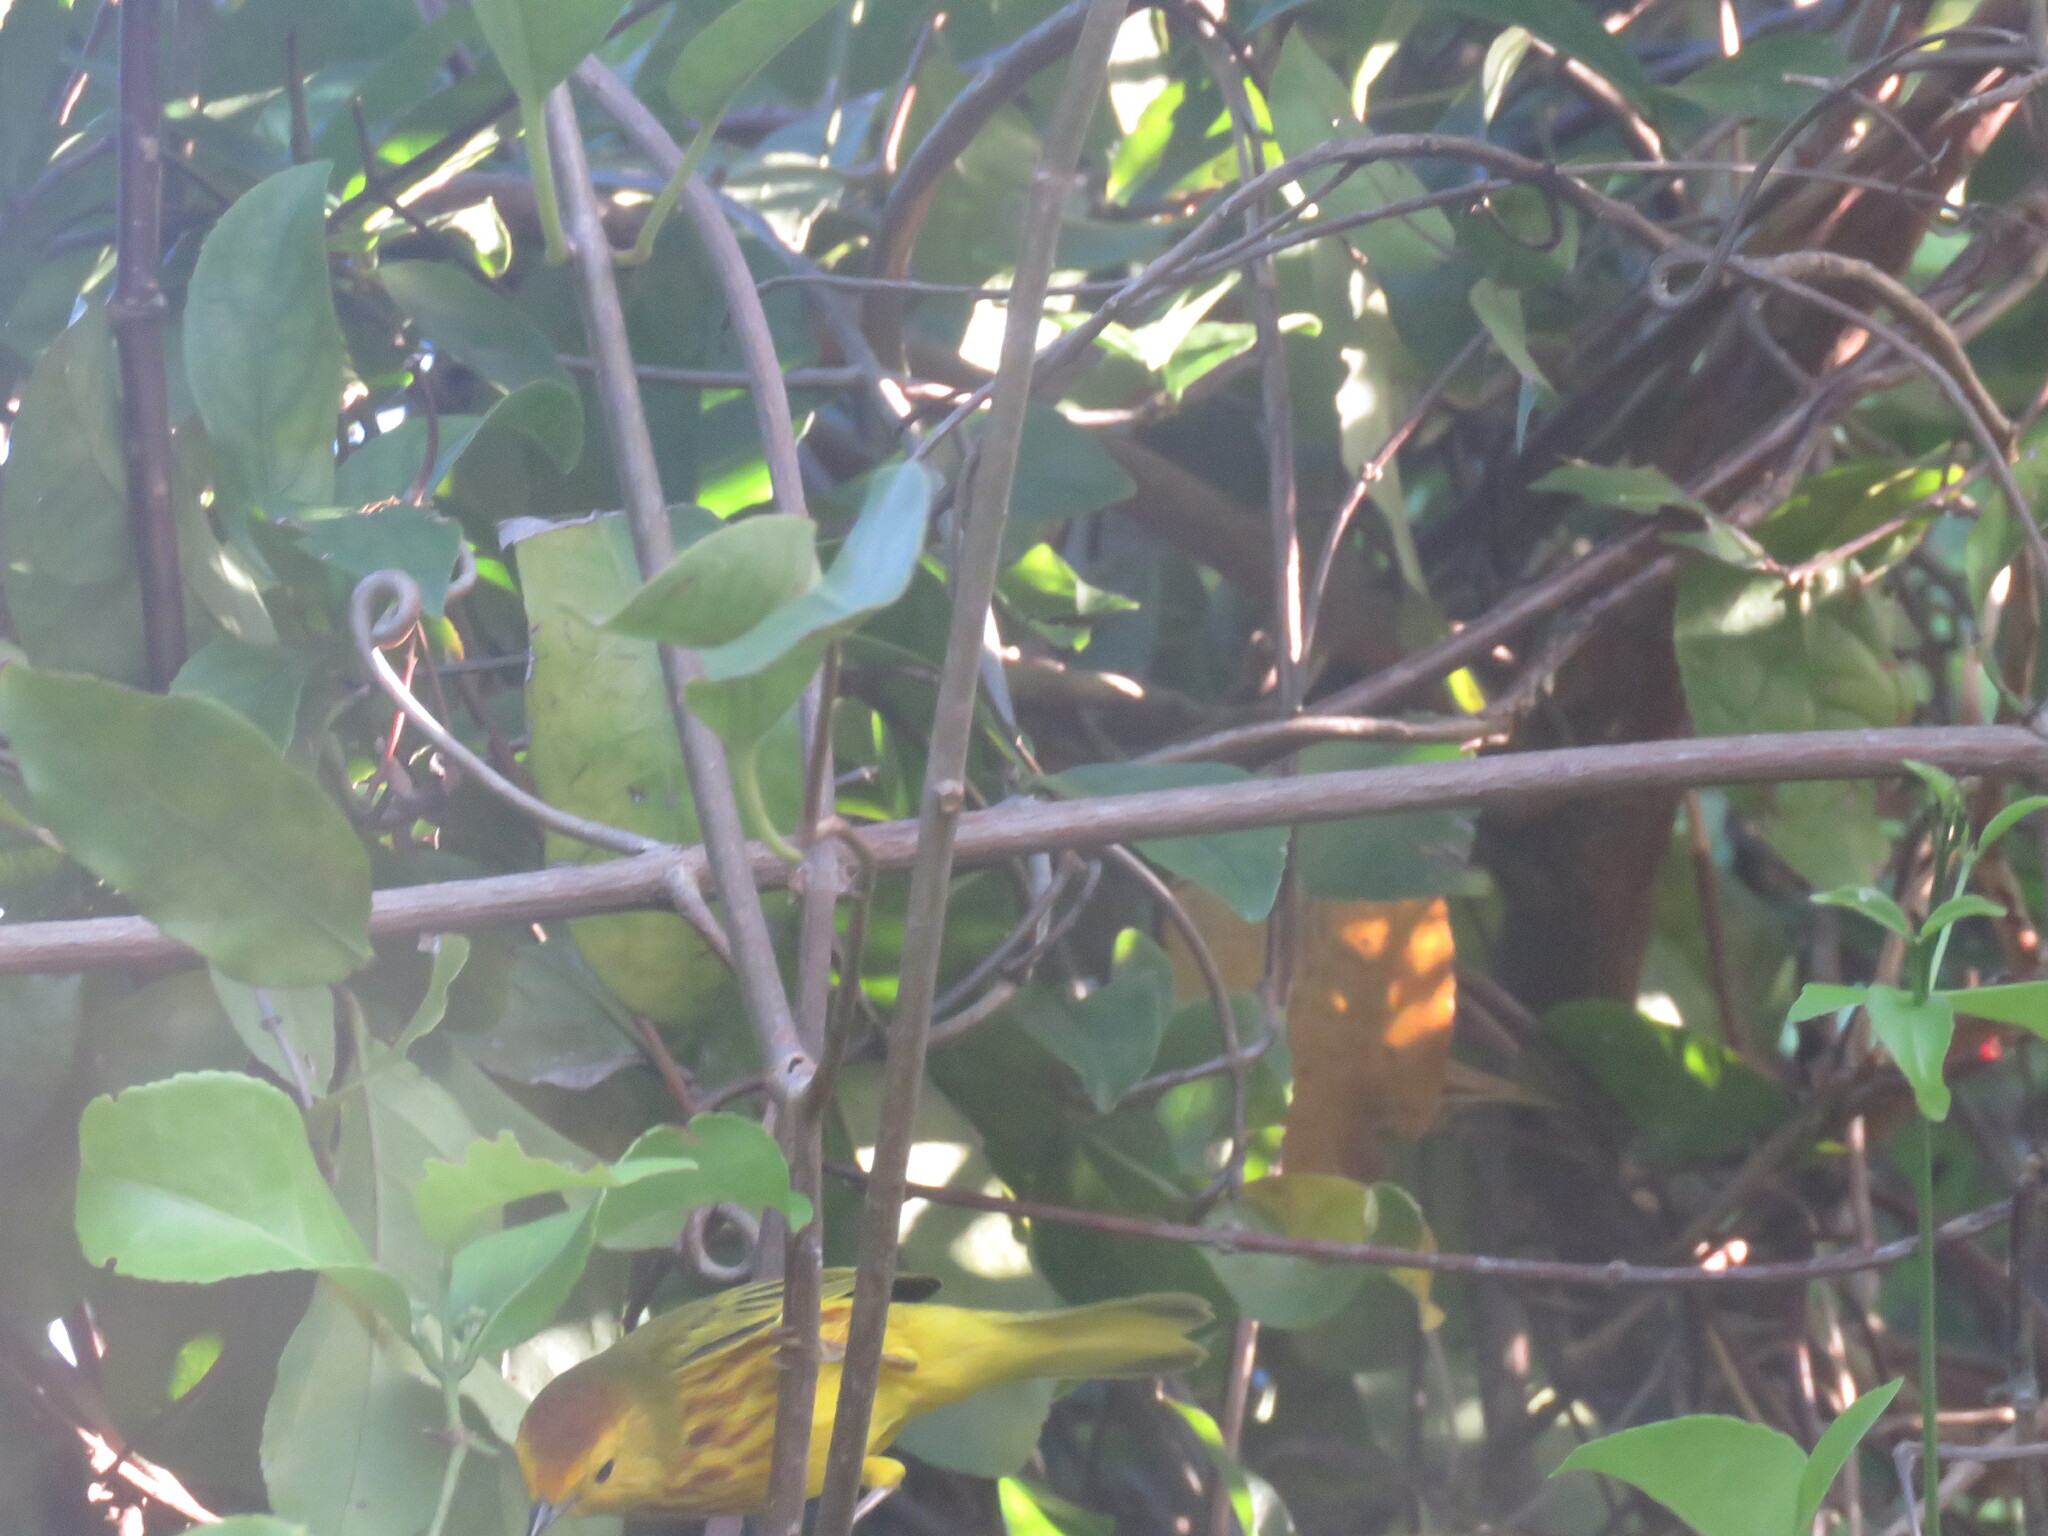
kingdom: Animalia
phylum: Chordata
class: Aves
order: Passeriformes
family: Parulidae
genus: Setophaga
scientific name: Setophaga petechia
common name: Yellow warbler
